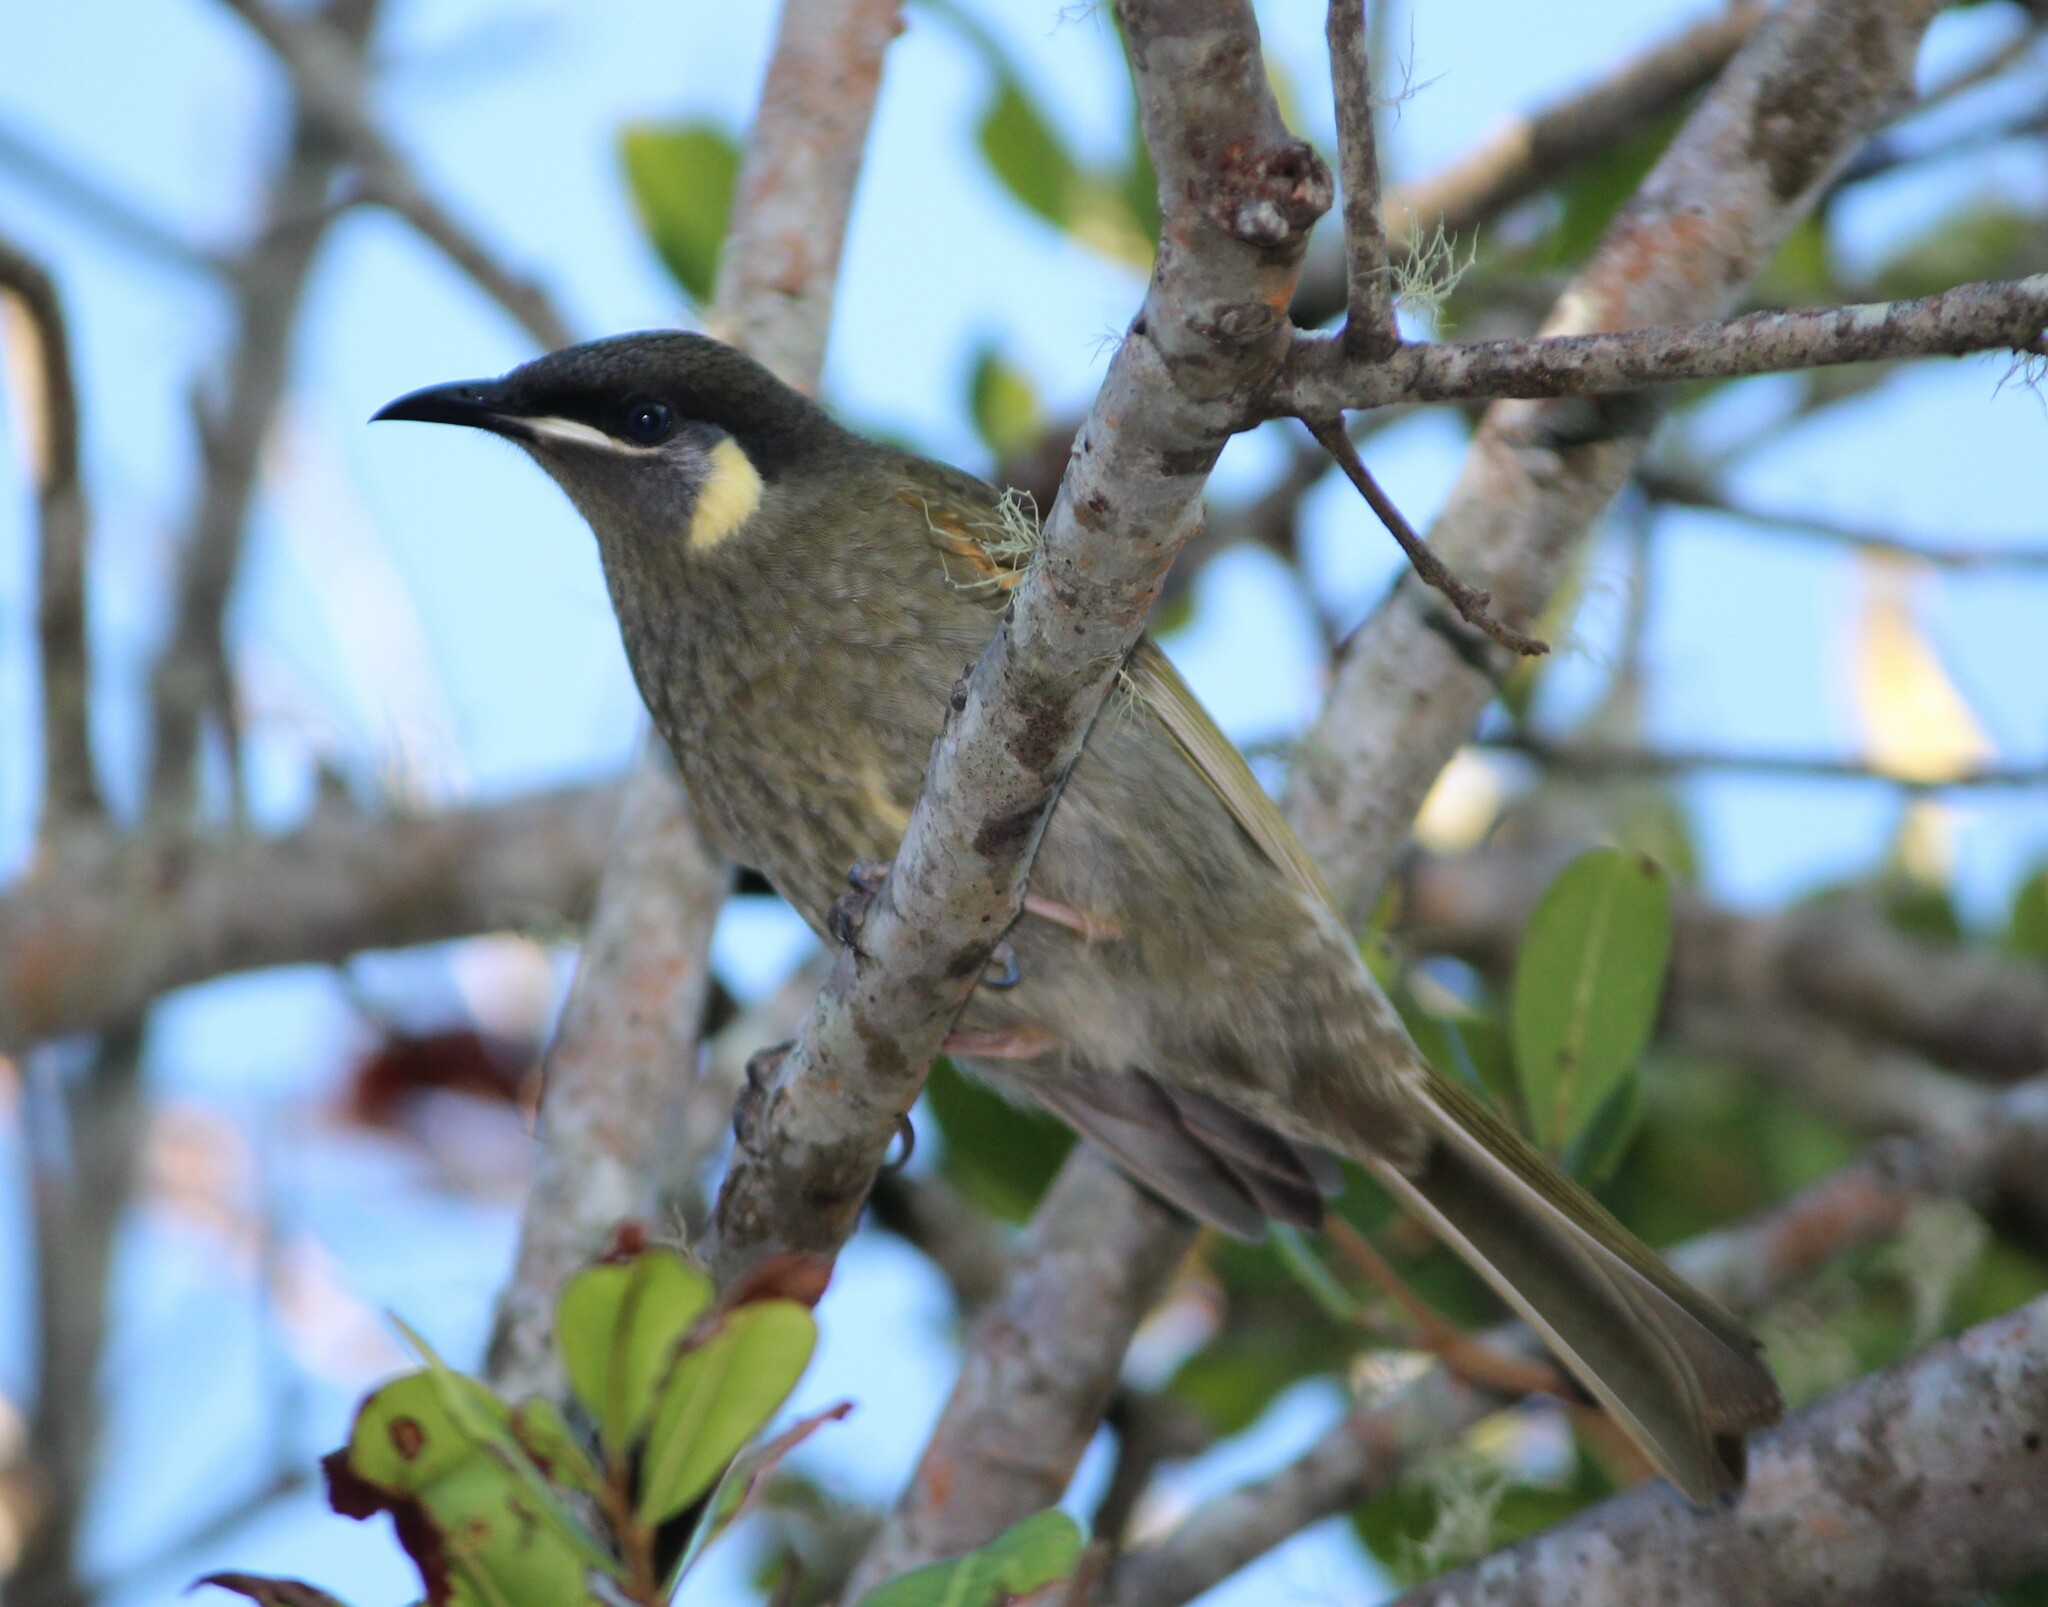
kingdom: Animalia
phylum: Chordata
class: Aves
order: Passeriformes
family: Meliphagidae
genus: Meliphaga
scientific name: Meliphaga lewinii
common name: Lewin's honeyeater
